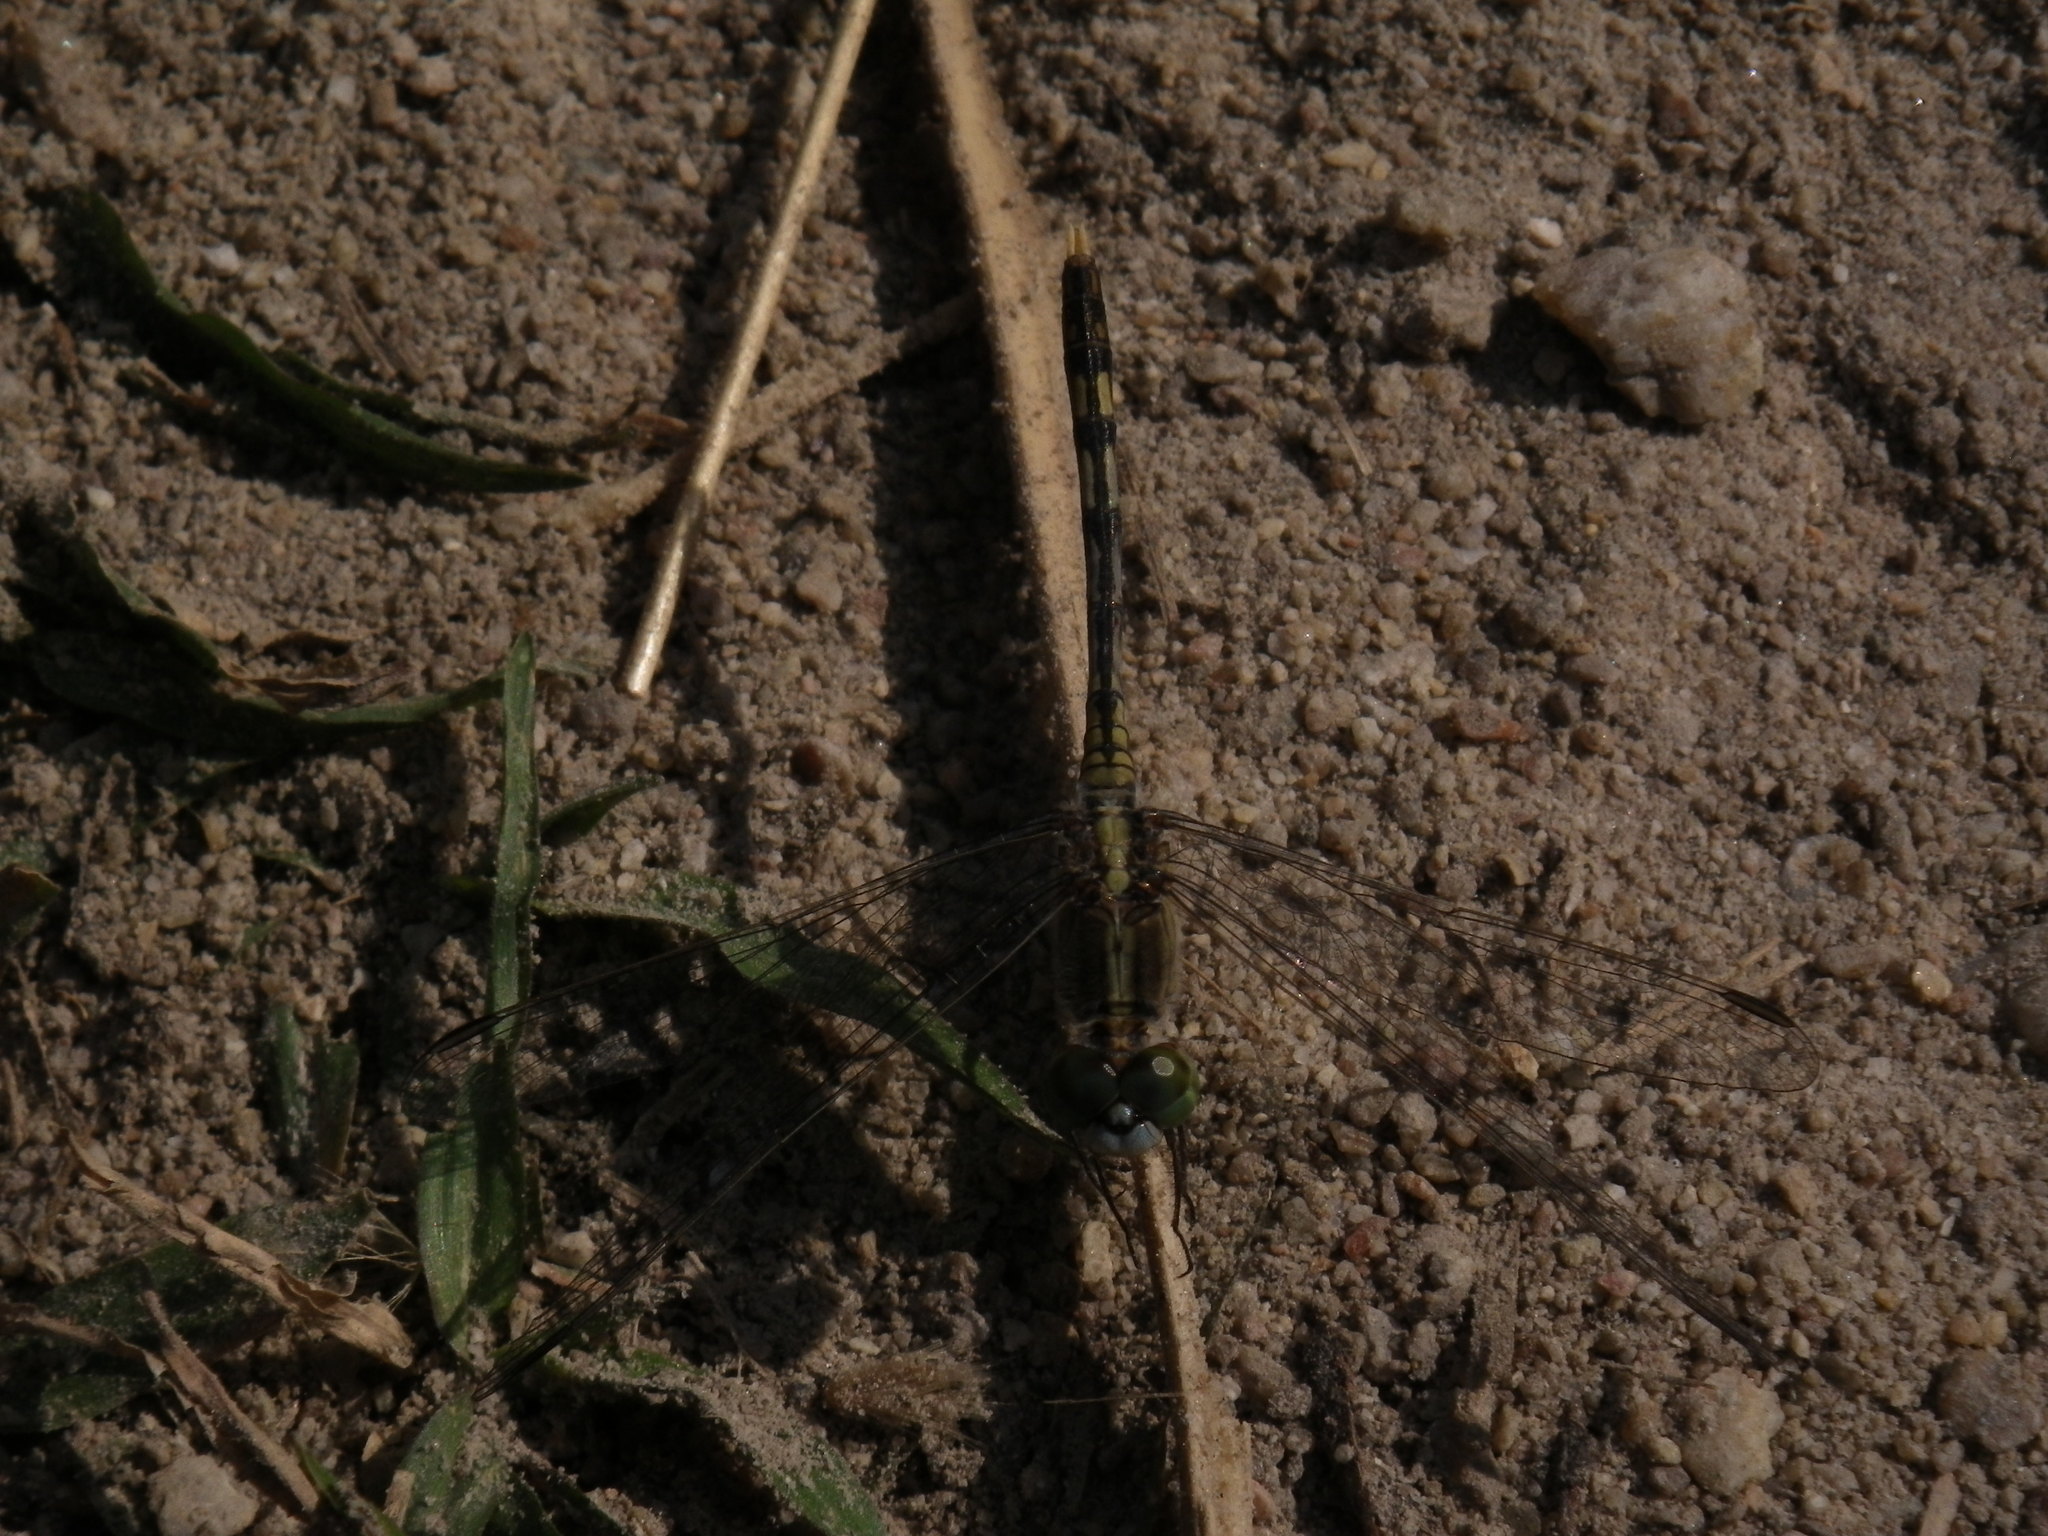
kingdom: Animalia
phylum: Arthropoda
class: Insecta
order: Odonata
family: Libellulidae
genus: Diplacodes
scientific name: Diplacodes trivialis
